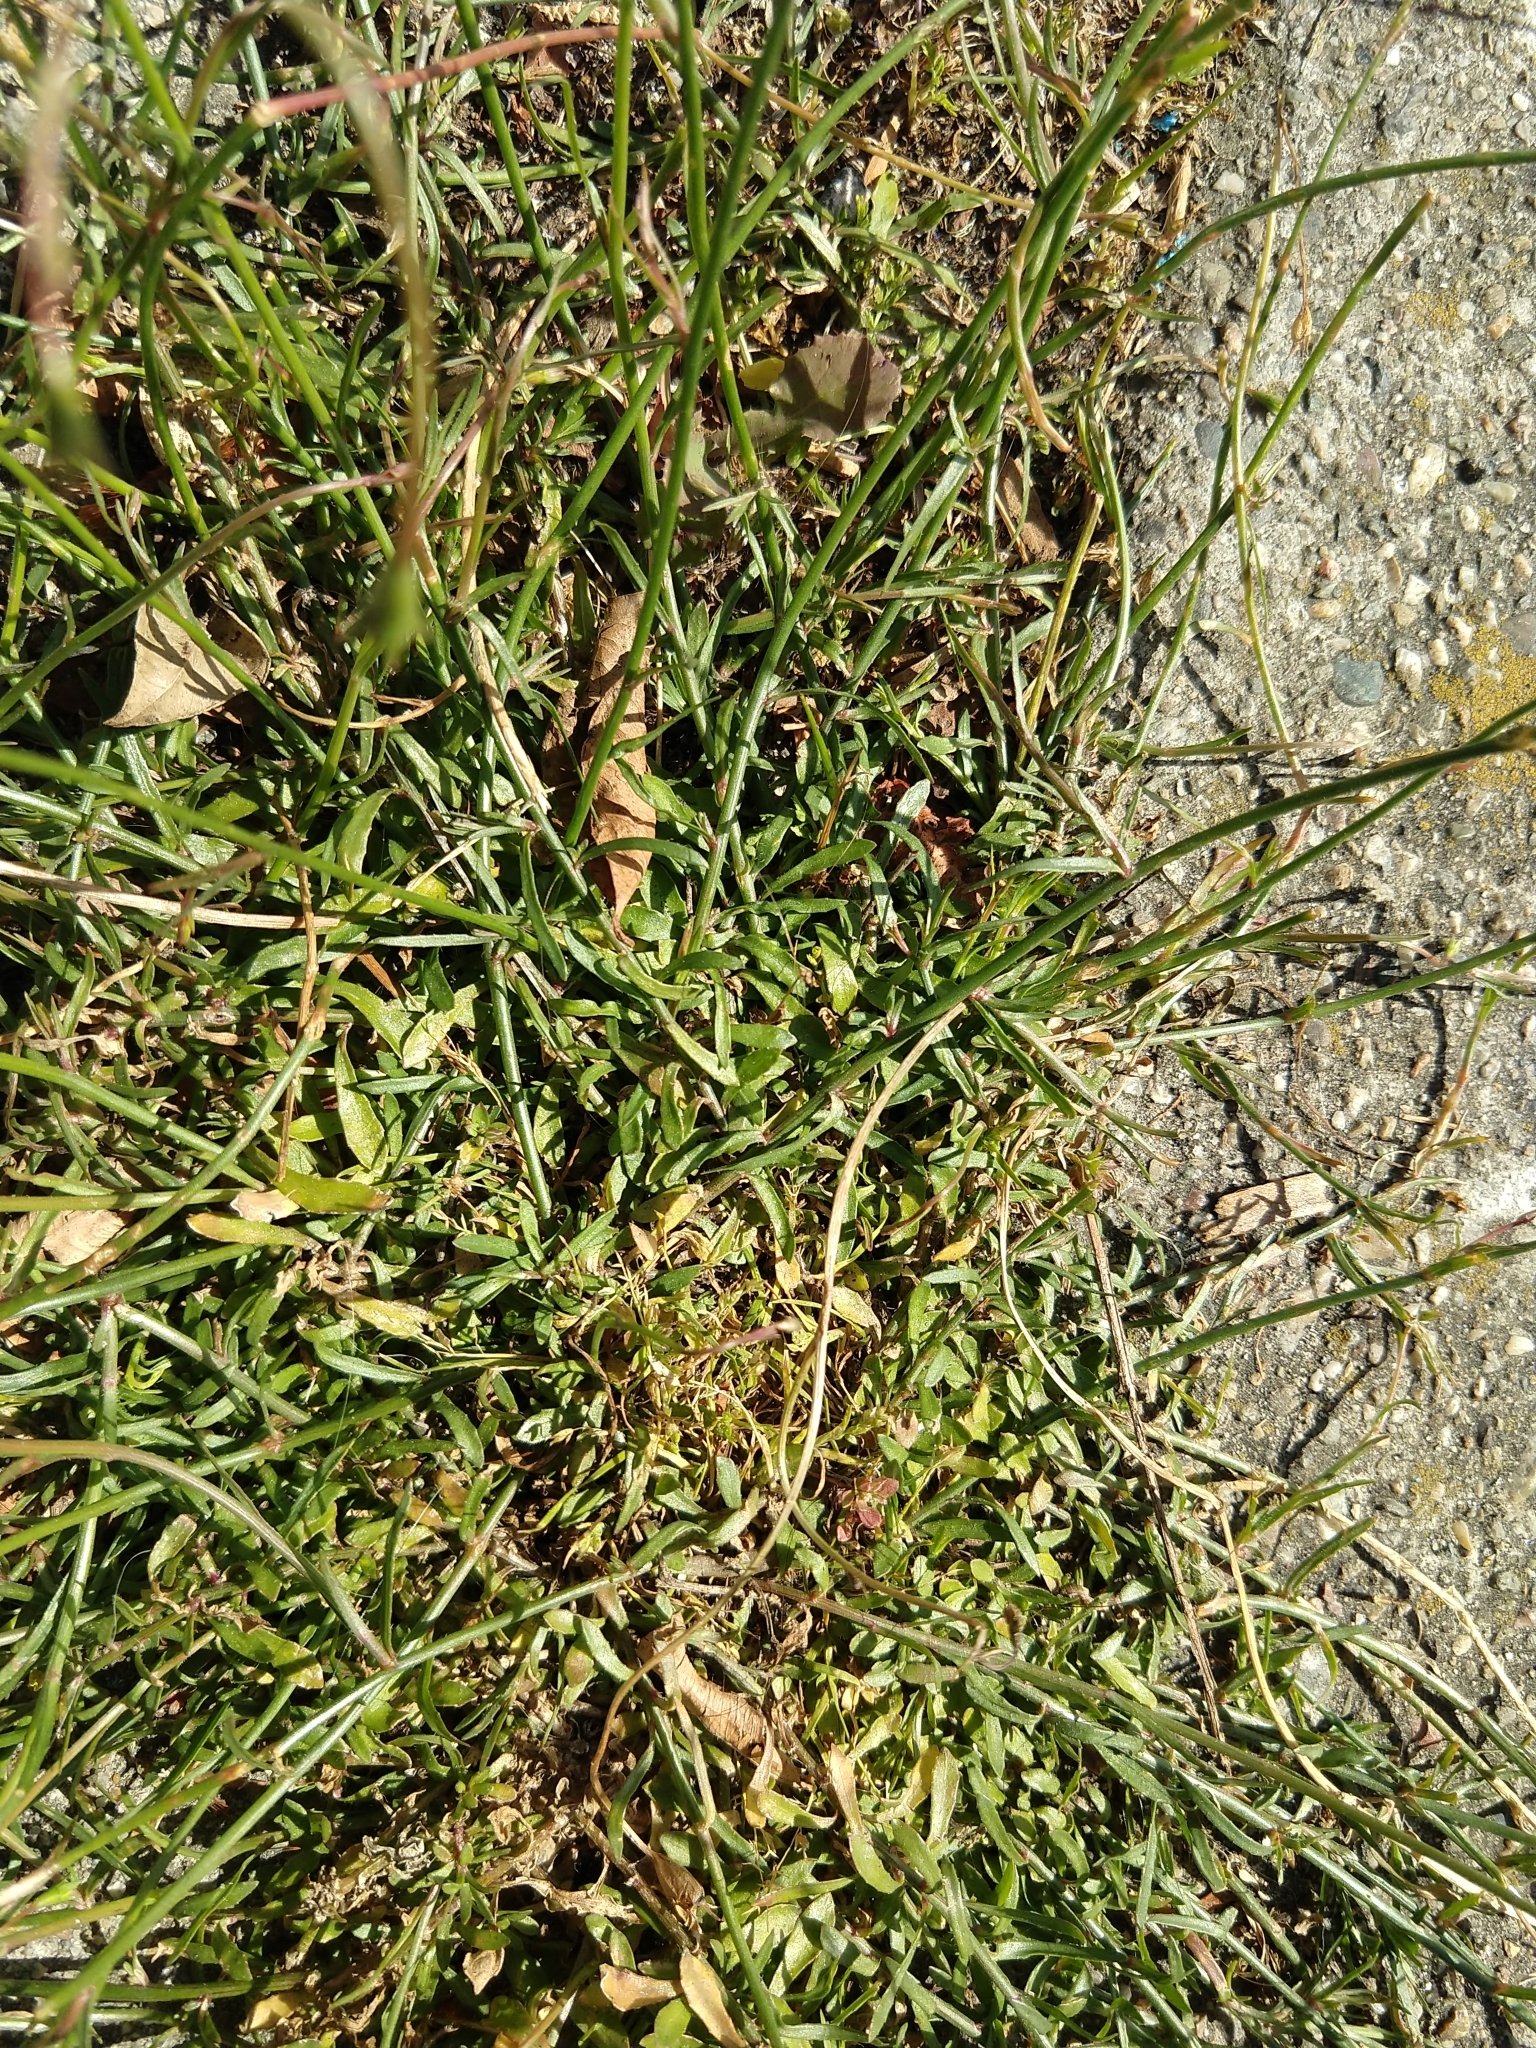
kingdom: Plantae
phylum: Tracheophyta
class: Magnoliopsida
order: Asterales
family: Campanulaceae
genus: Wahlenbergia
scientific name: Wahlenbergia marginata
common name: Southern rockbell
